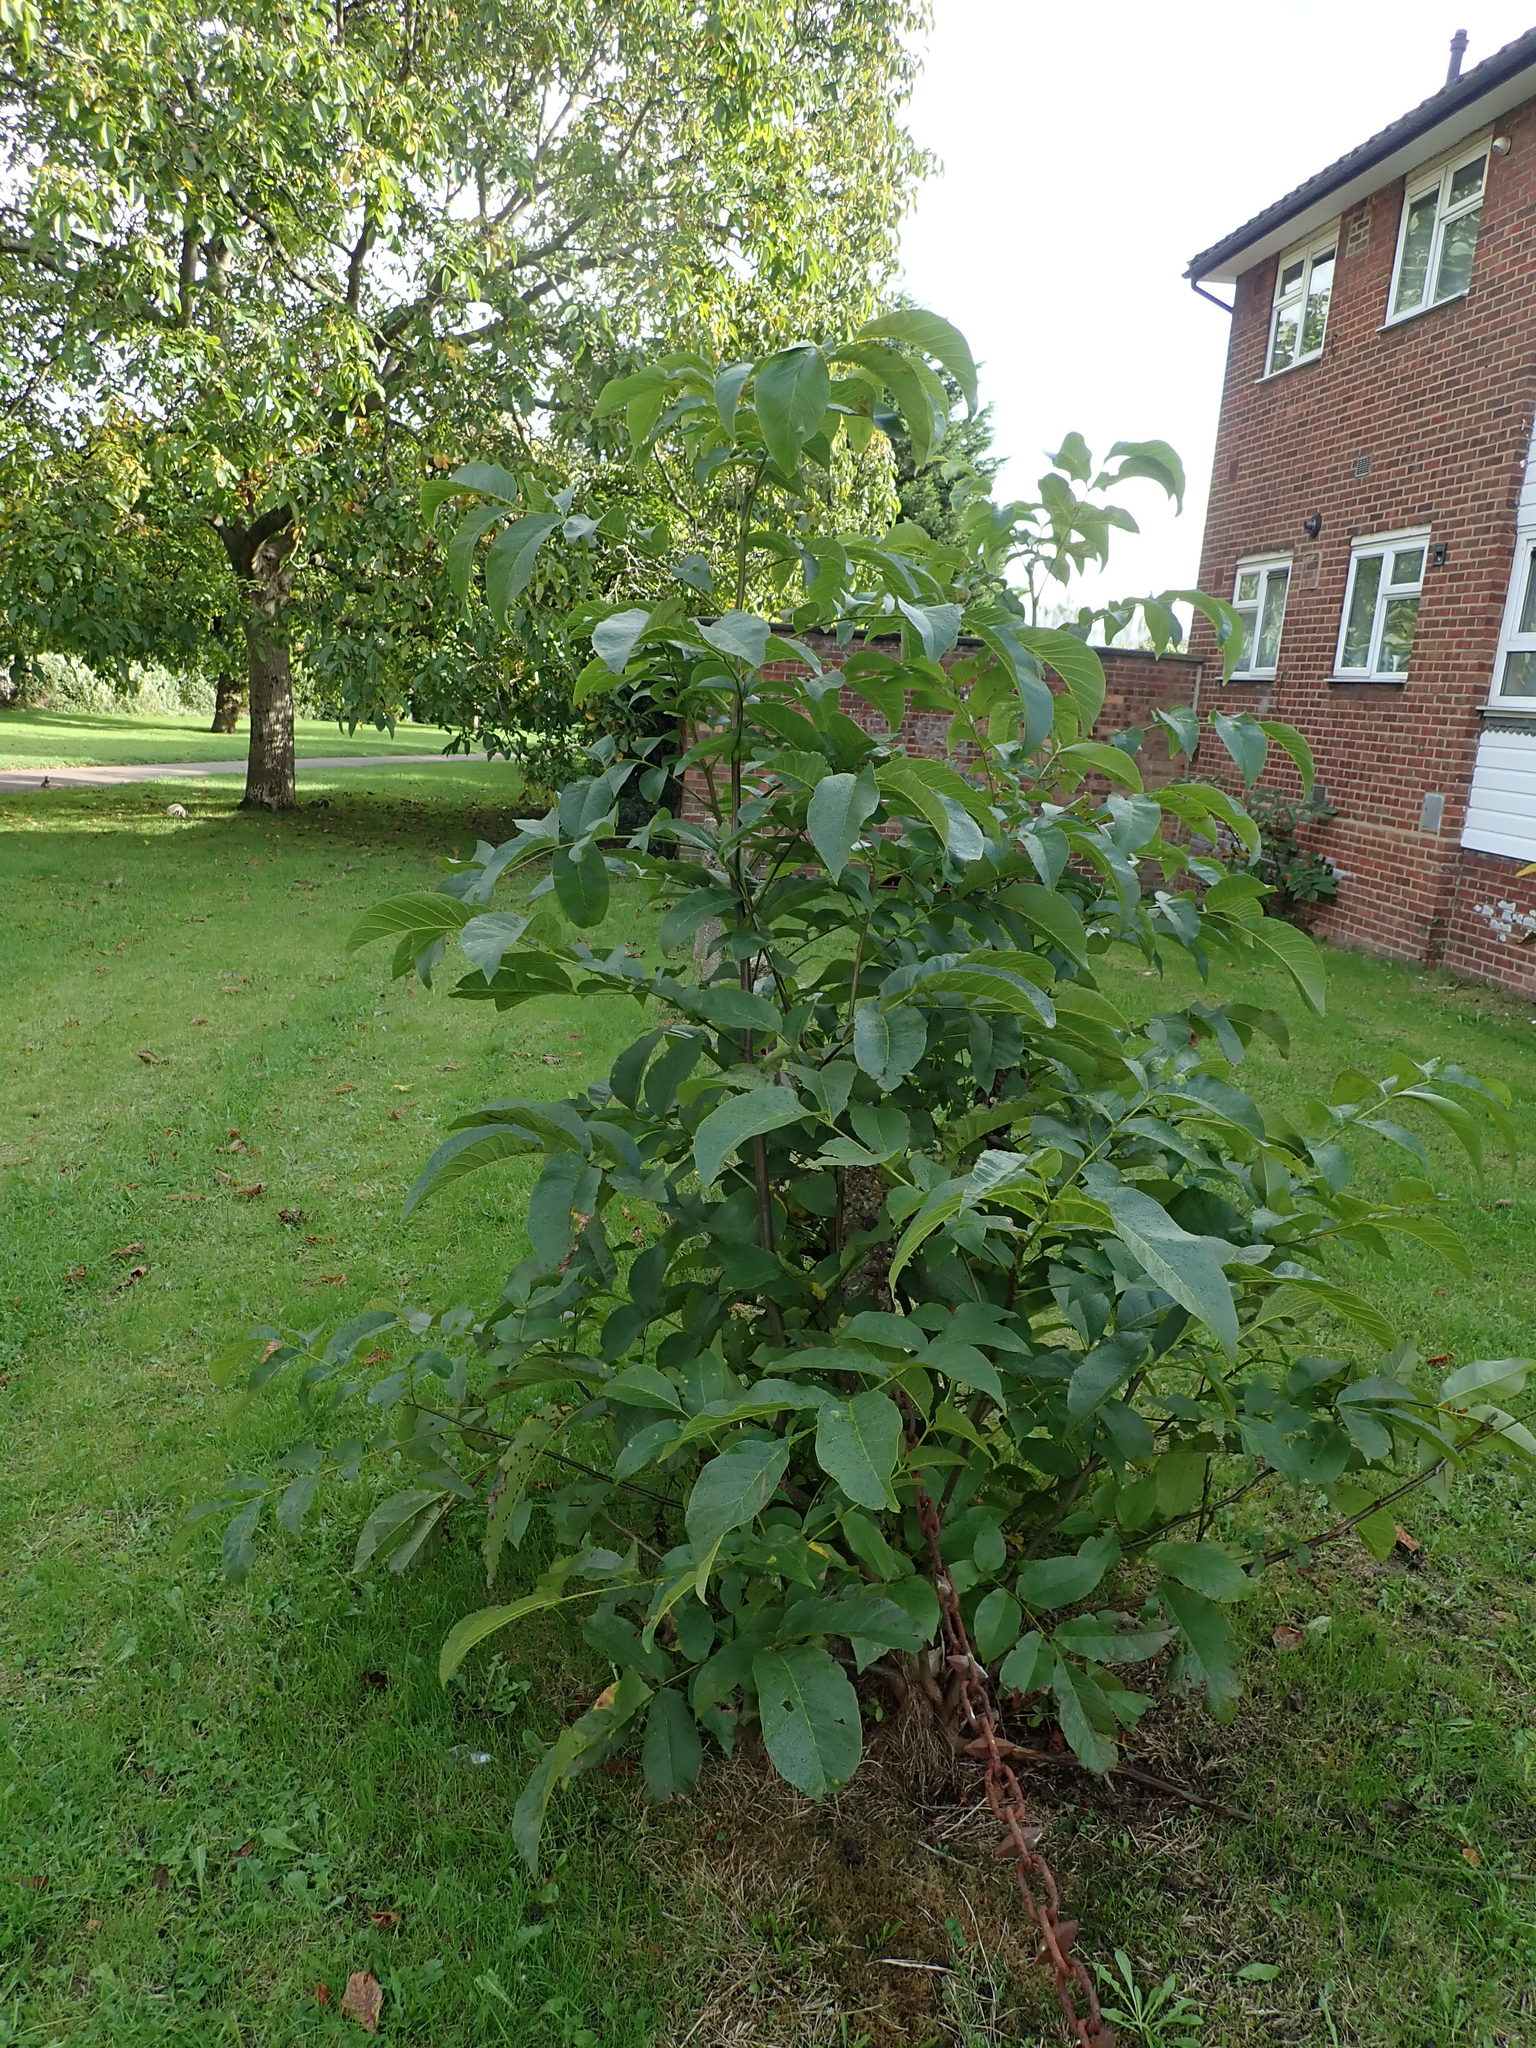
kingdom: Plantae
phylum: Tracheophyta
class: Magnoliopsida
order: Fagales
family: Juglandaceae
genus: Juglans
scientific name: Juglans regia
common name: Walnut
